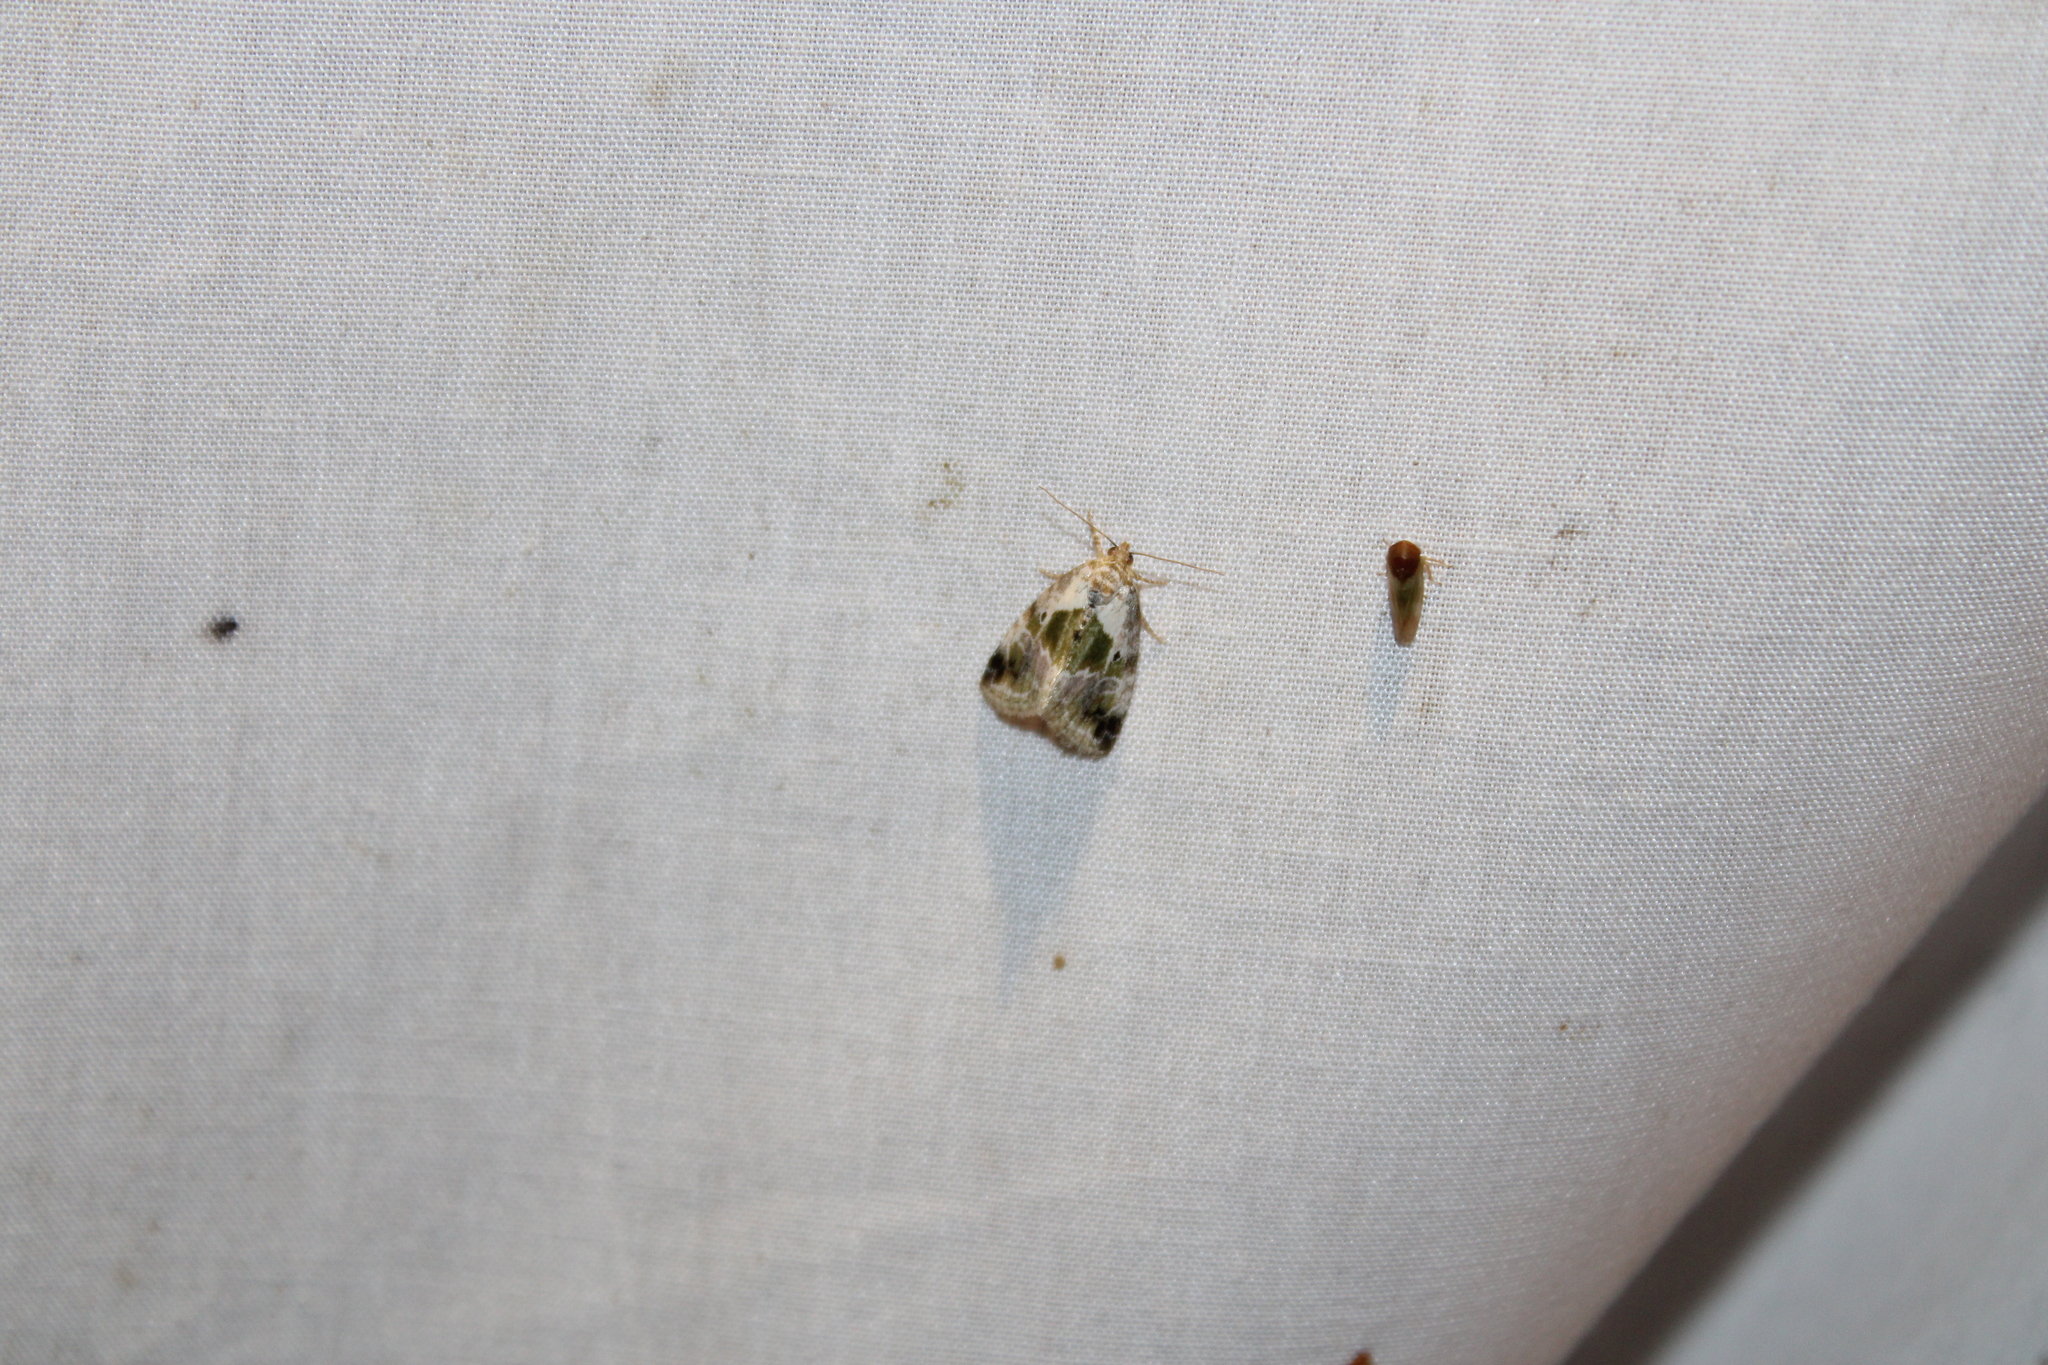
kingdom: Animalia
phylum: Arthropoda
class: Insecta
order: Lepidoptera
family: Noctuidae
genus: Maliattha
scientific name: Maliattha synochitis
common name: Black-dotted glyph
